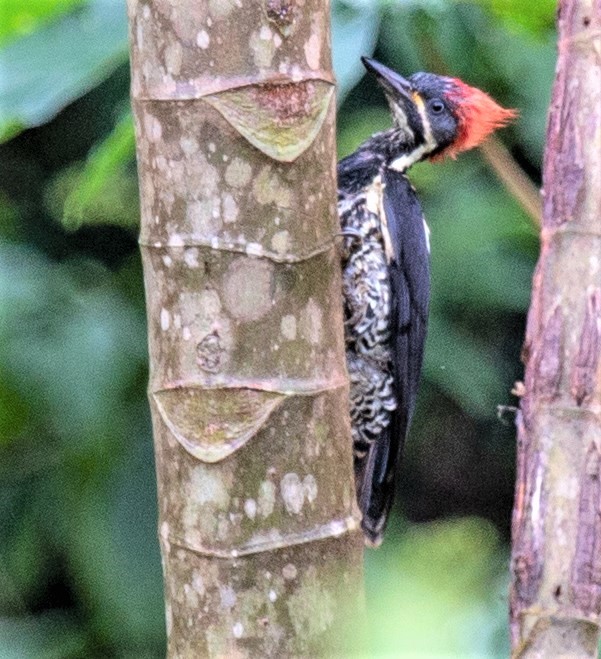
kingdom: Animalia
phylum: Chordata
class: Aves
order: Piciformes
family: Picidae
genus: Dryocopus
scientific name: Dryocopus lineatus
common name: Lineated woodpecker
